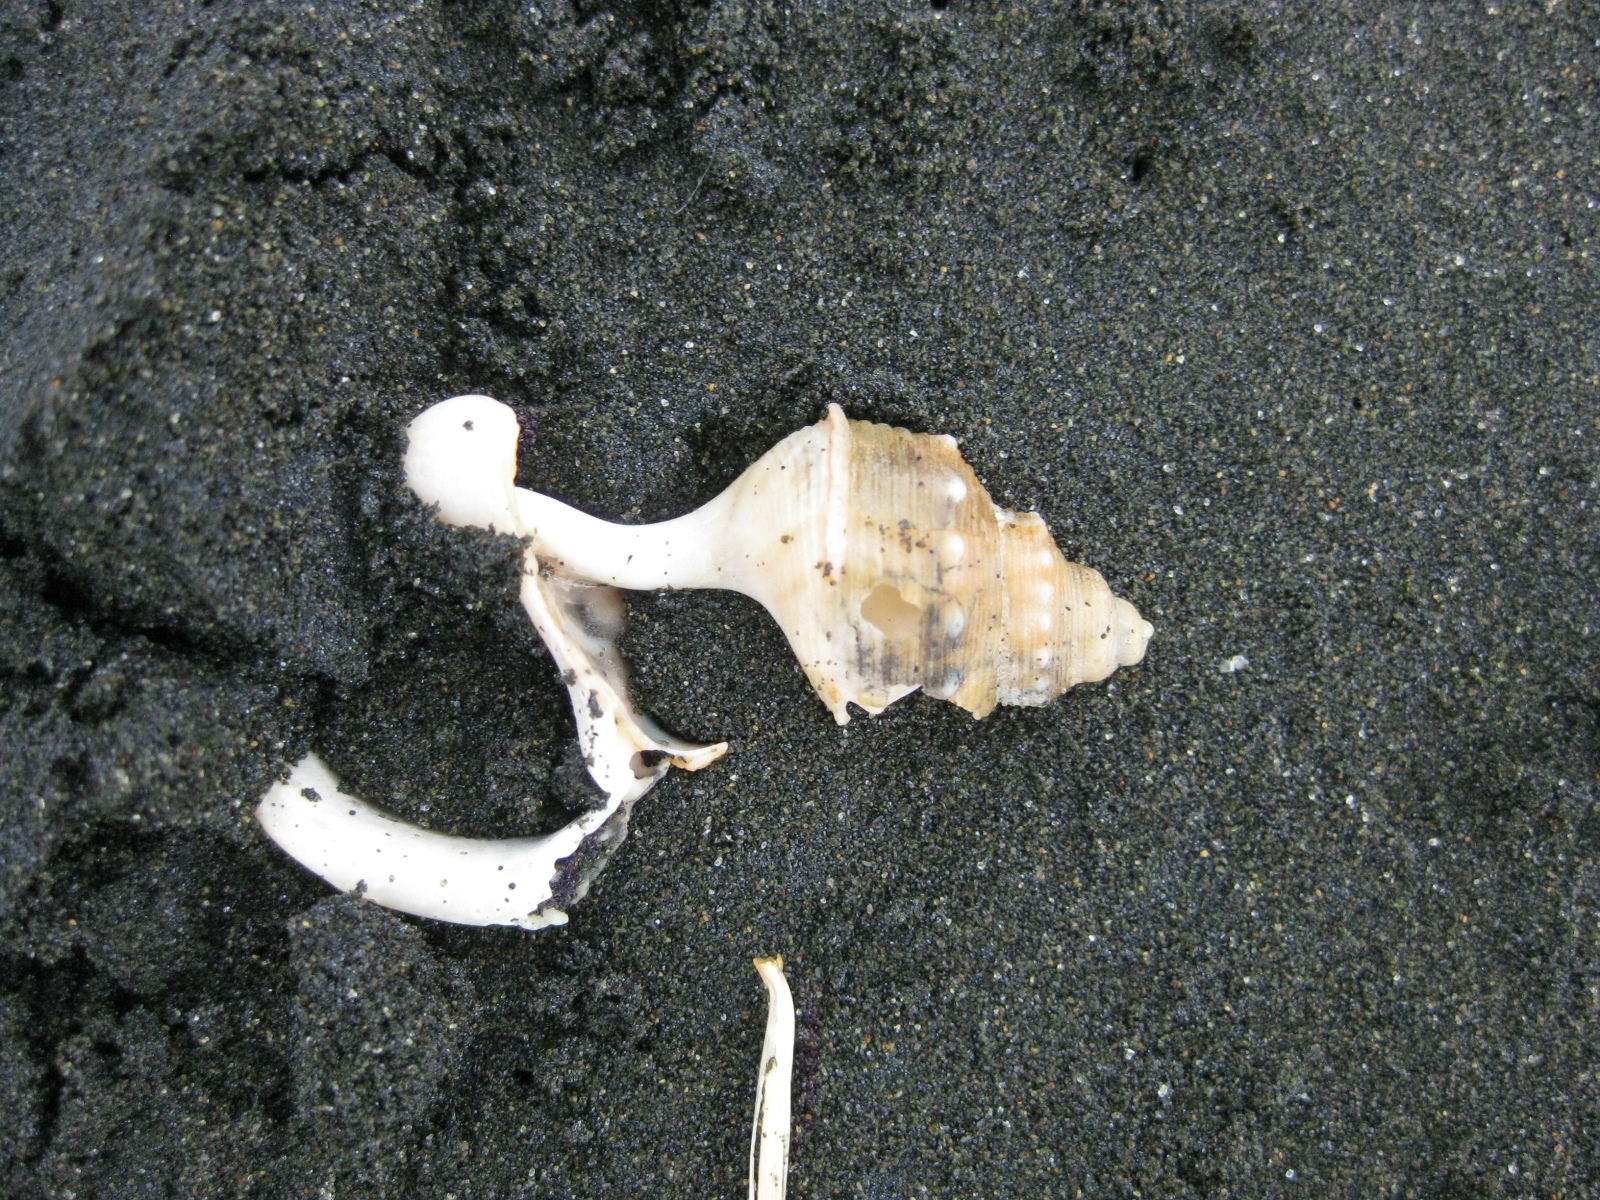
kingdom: Animalia
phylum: Mollusca
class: Gastropoda
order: Littorinimorpha
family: Struthiolariidae
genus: Struthiolaria
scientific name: Struthiolaria papulosa
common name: Large ostrich foot
